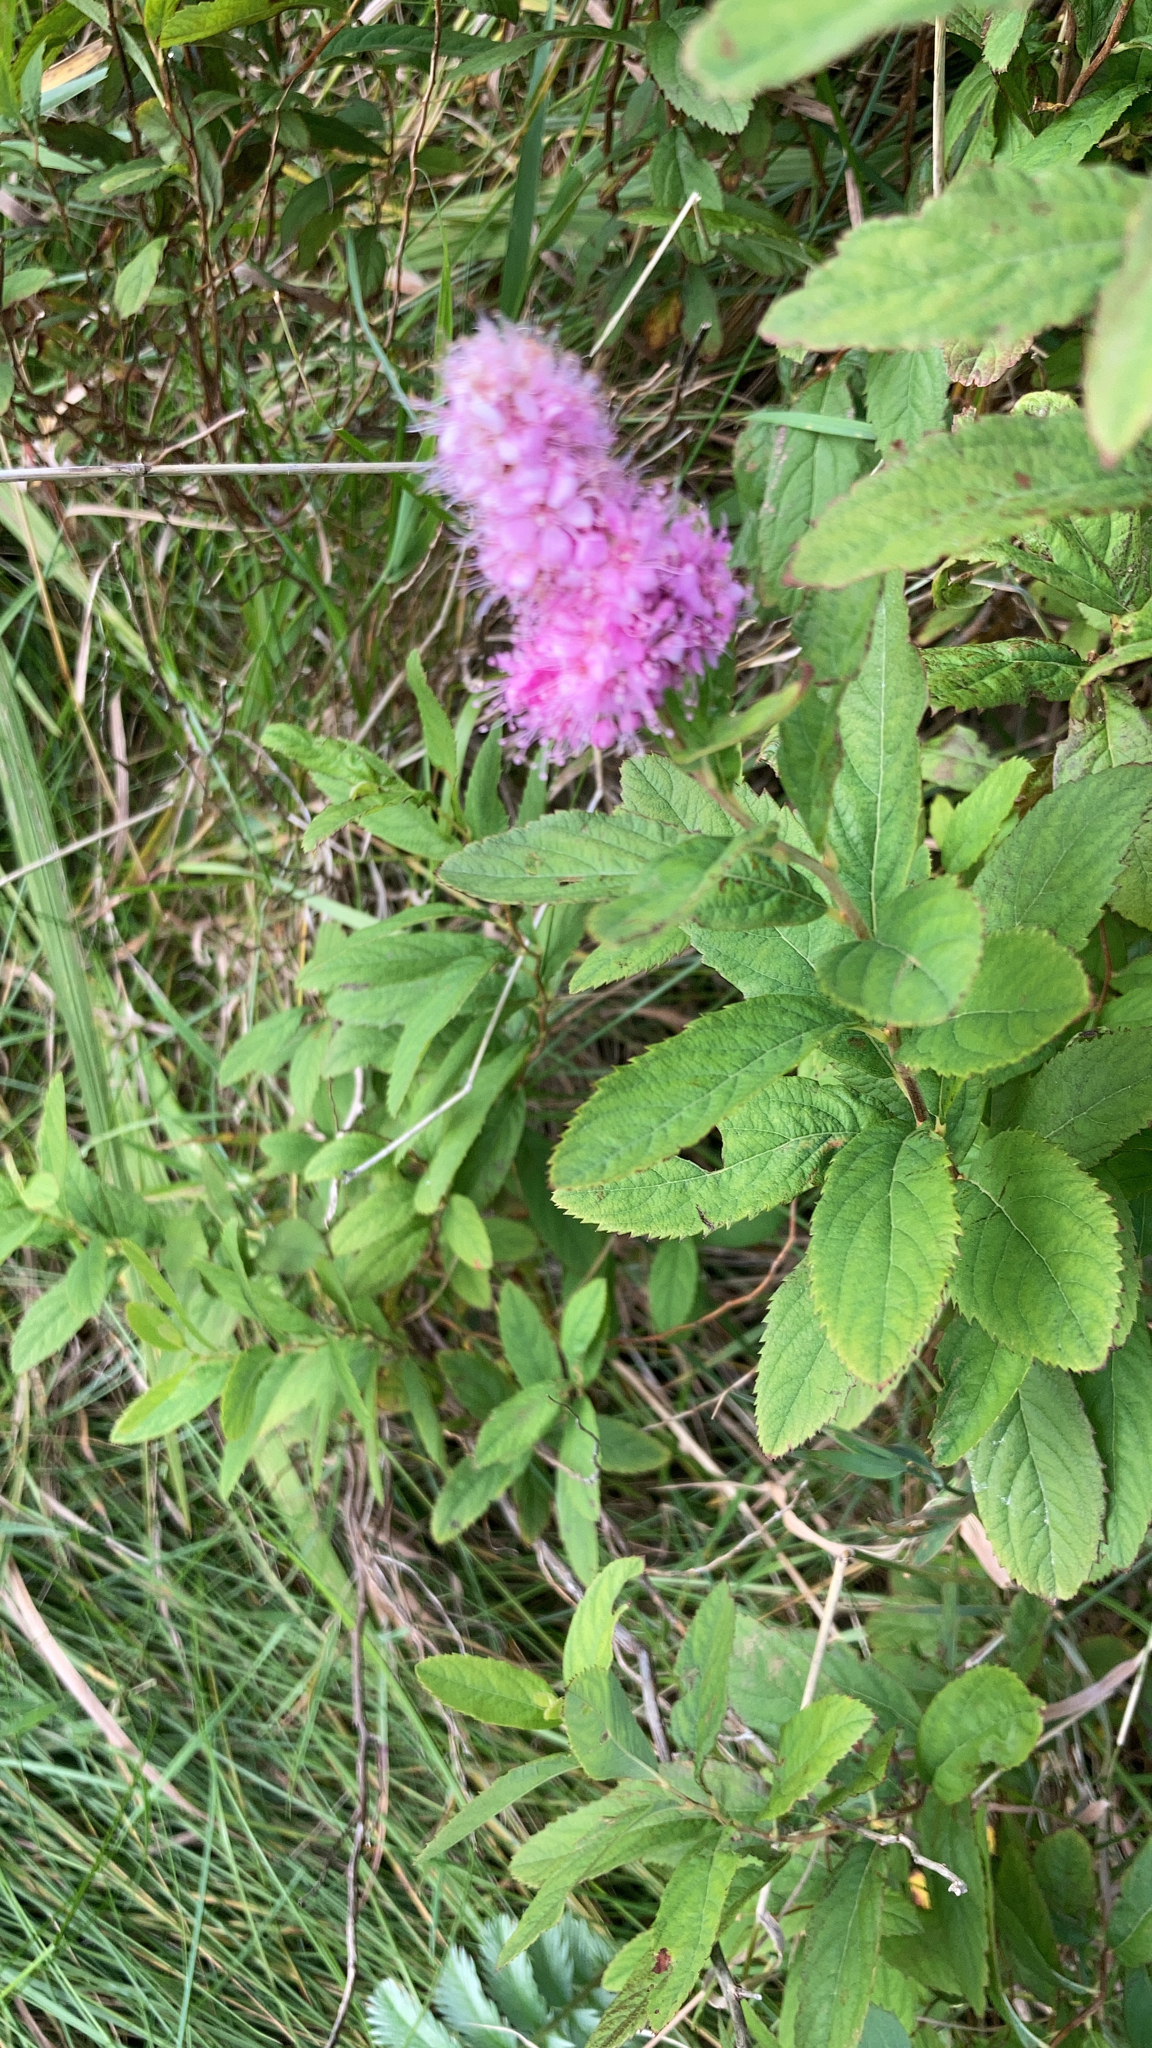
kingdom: Plantae
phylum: Tracheophyta
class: Magnoliopsida
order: Rosales
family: Rosaceae
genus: Spiraea
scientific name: Spiraea douglasii
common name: Steeplebush
